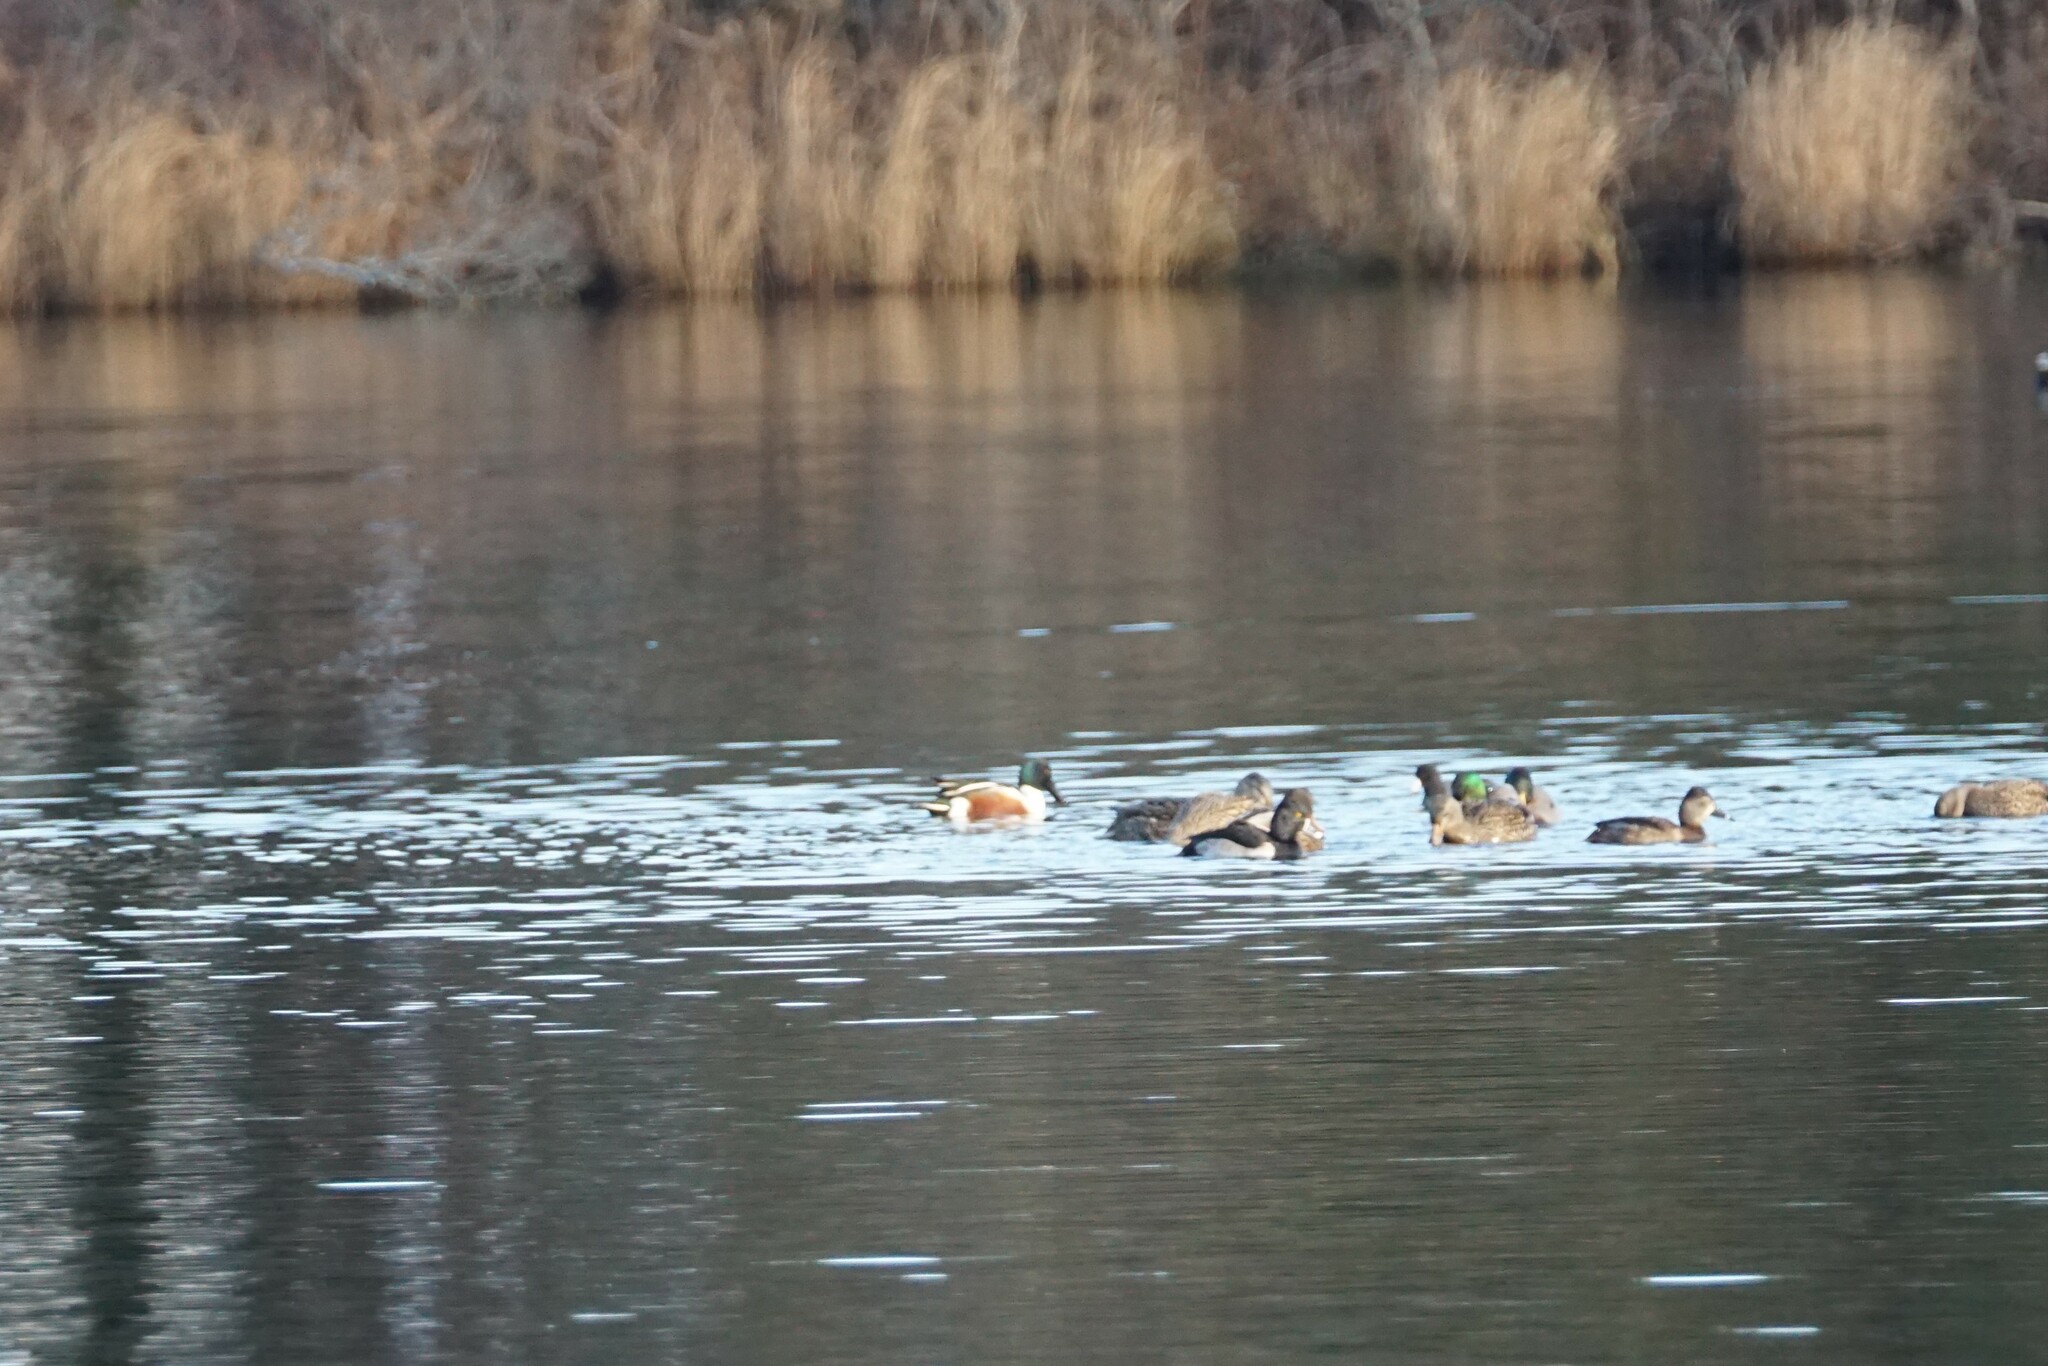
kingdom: Animalia
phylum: Chordata
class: Aves
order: Anseriformes
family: Anatidae
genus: Spatula
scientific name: Spatula clypeata
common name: Northern shoveler
